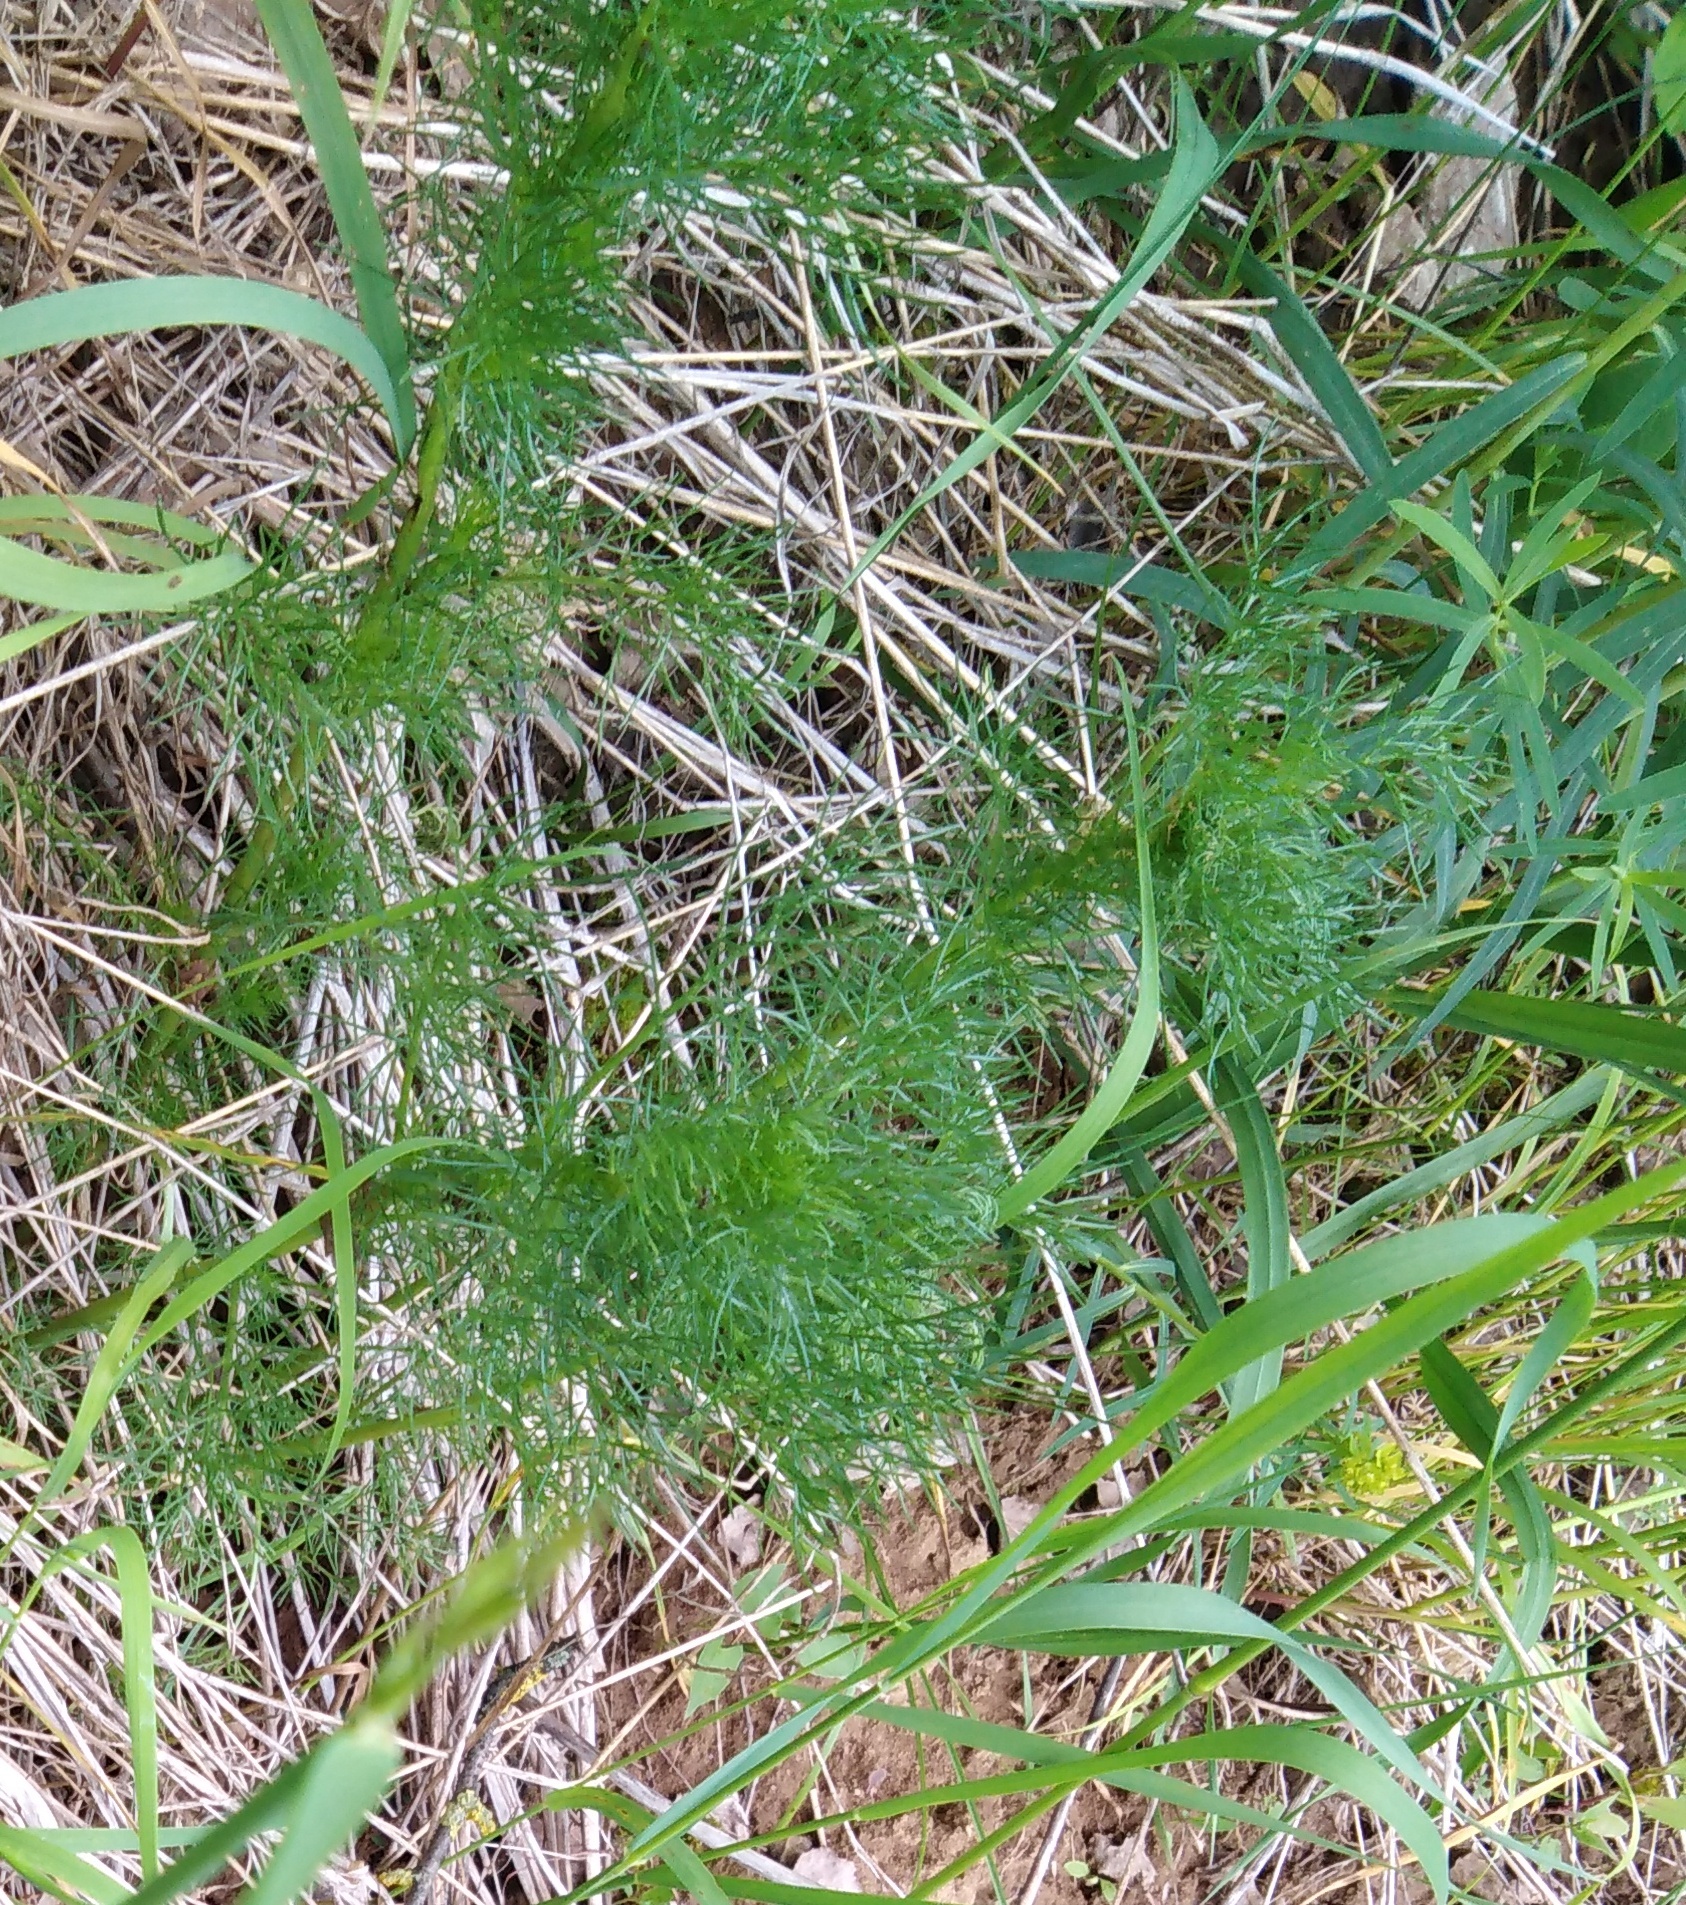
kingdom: Plantae
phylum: Tracheophyta
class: Magnoliopsida
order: Asterales
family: Asteraceae
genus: Tripleurospermum
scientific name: Tripleurospermum inodorum
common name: Scentless mayweed
